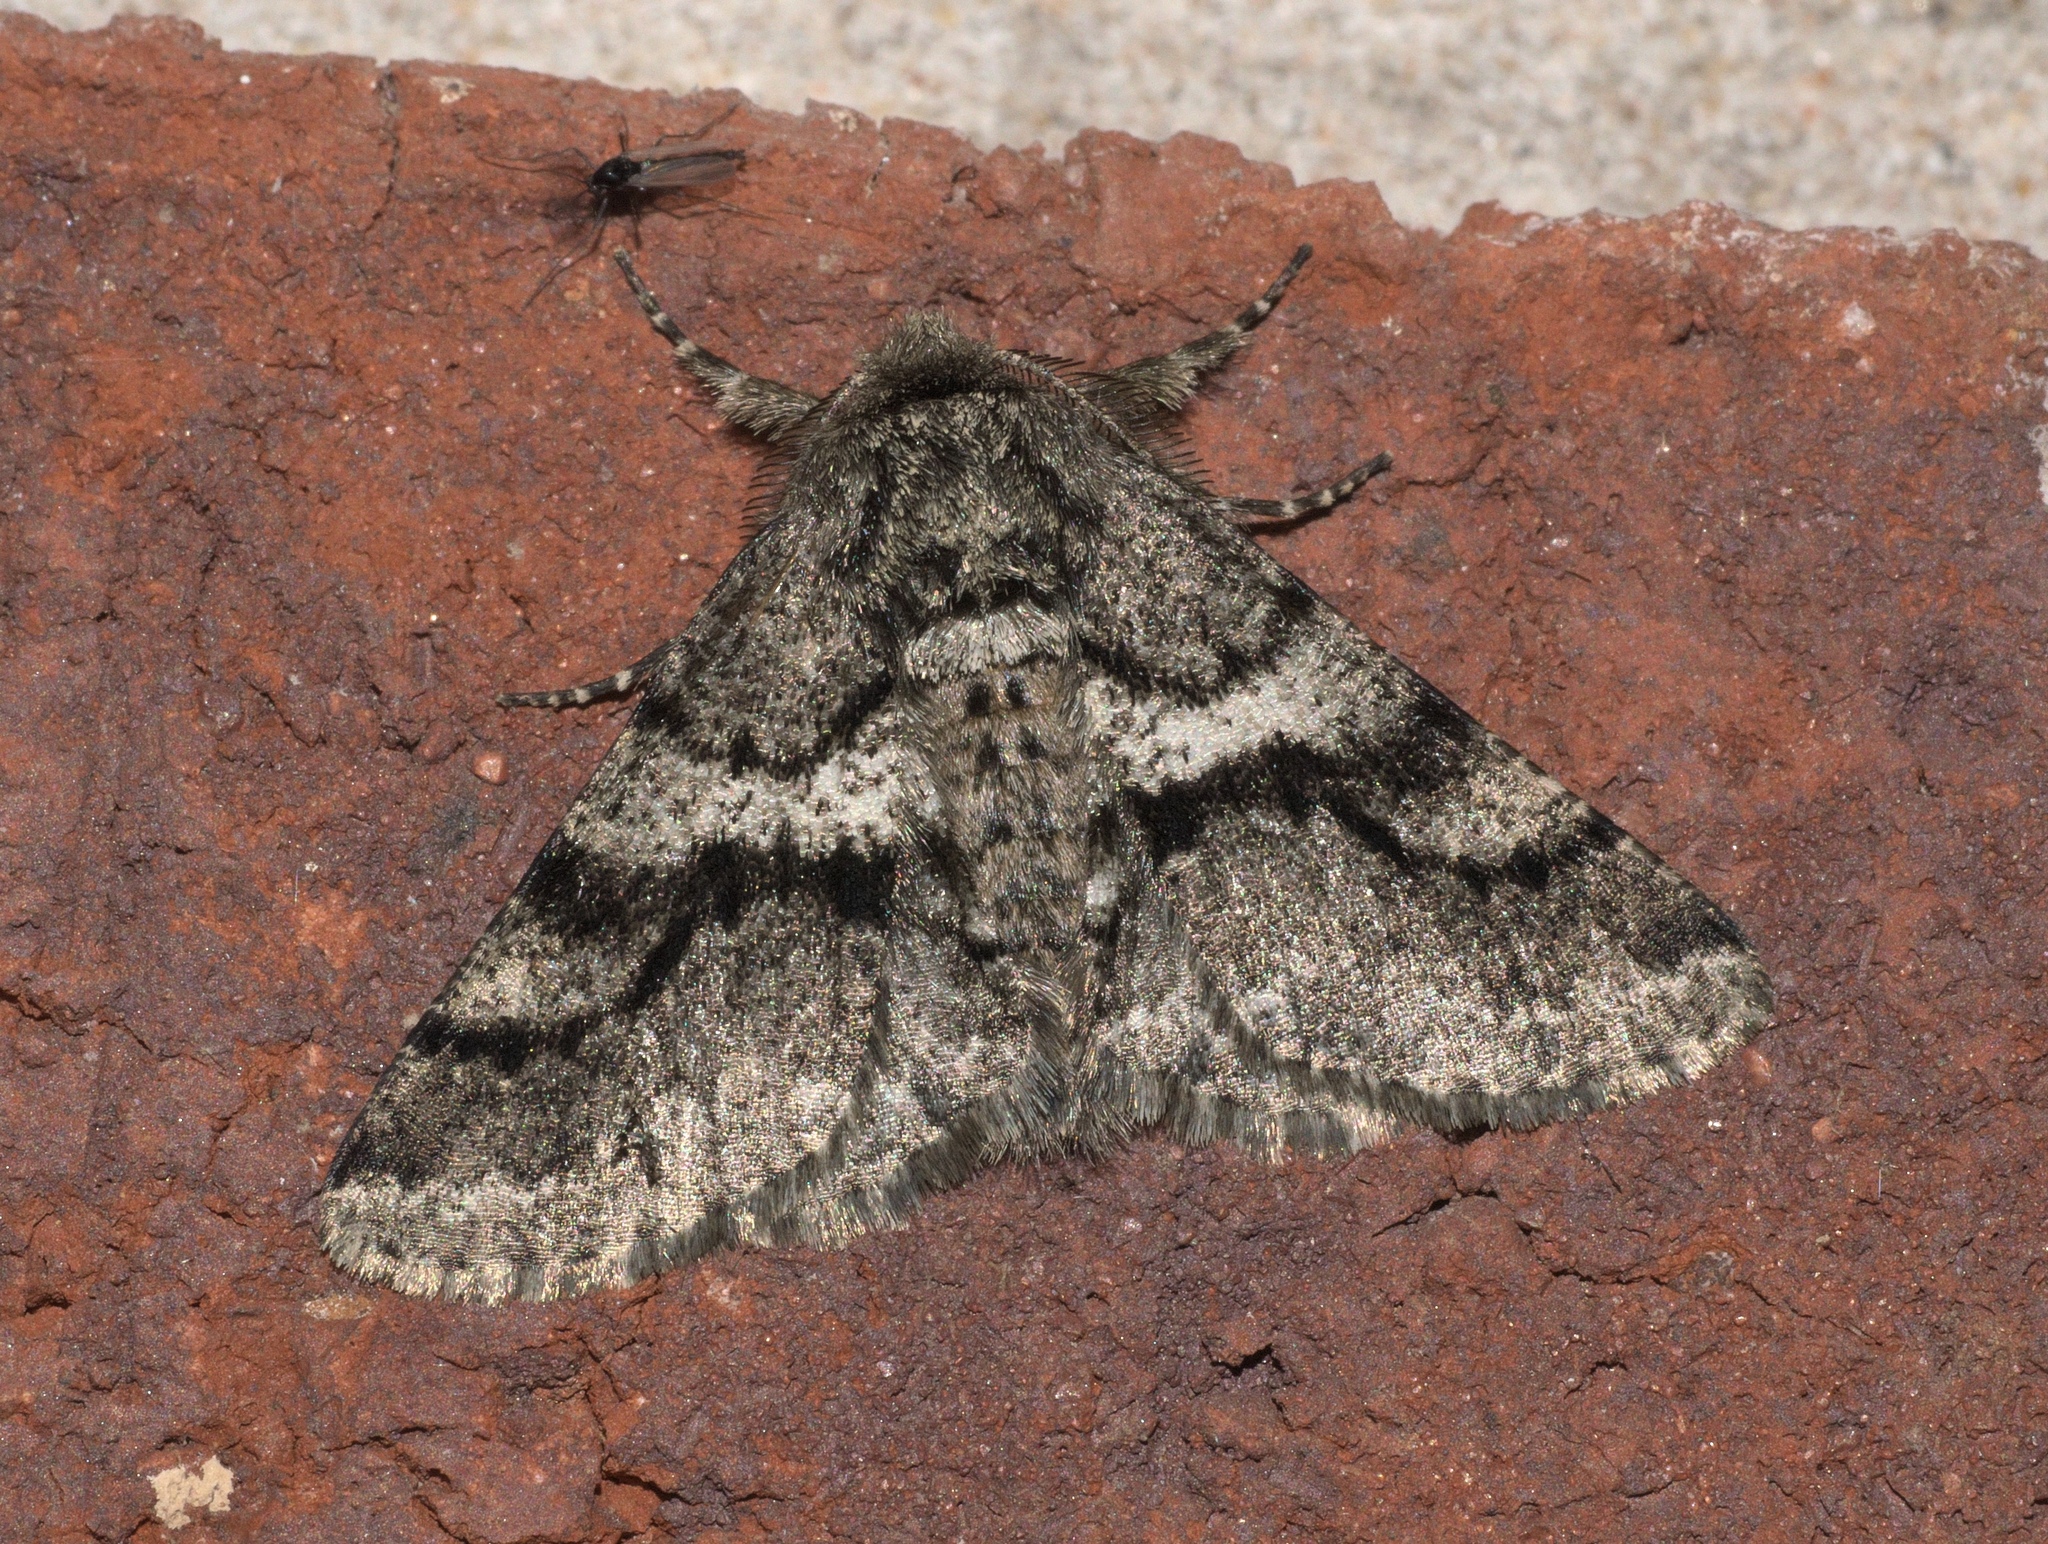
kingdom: Animalia
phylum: Arthropoda
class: Insecta
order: Lepidoptera
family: Geometridae
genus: Lycia
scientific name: Lycia ypsilon
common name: Wooly gray
